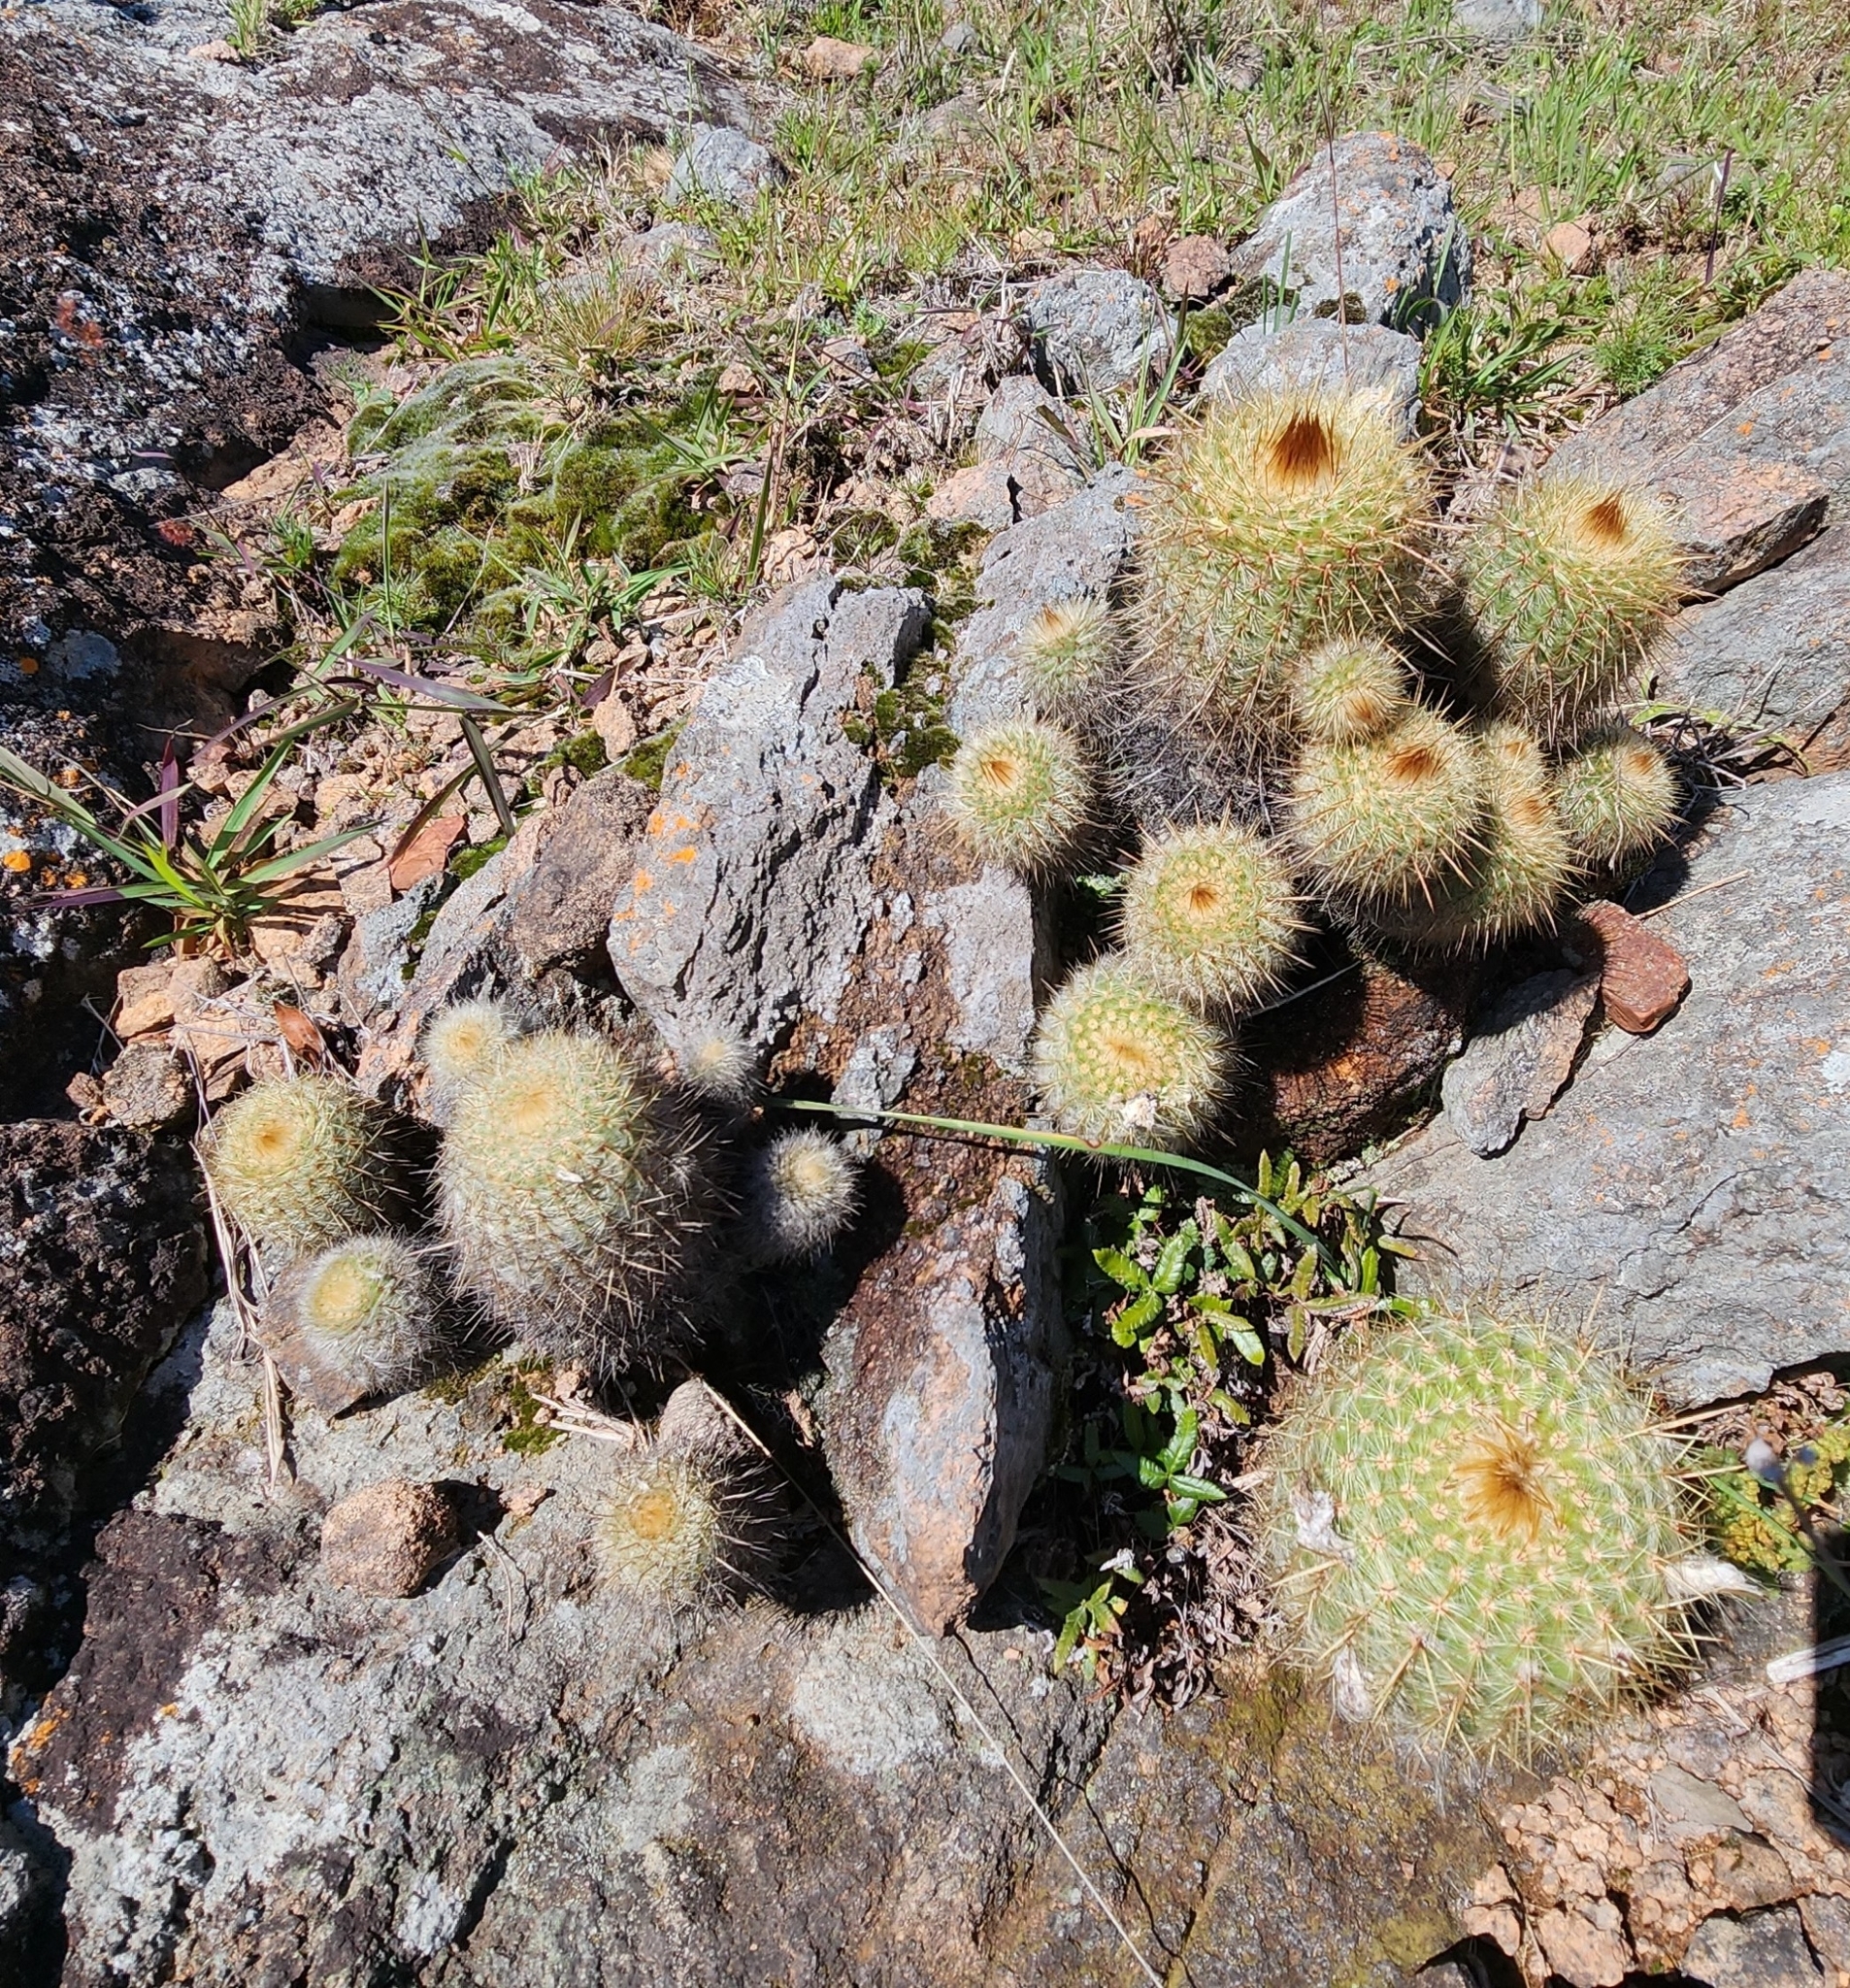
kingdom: Plantae
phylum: Tracheophyta
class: Magnoliopsida
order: Caryophyllales
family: Cactaceae
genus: Parodia
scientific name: Parodia scopa
